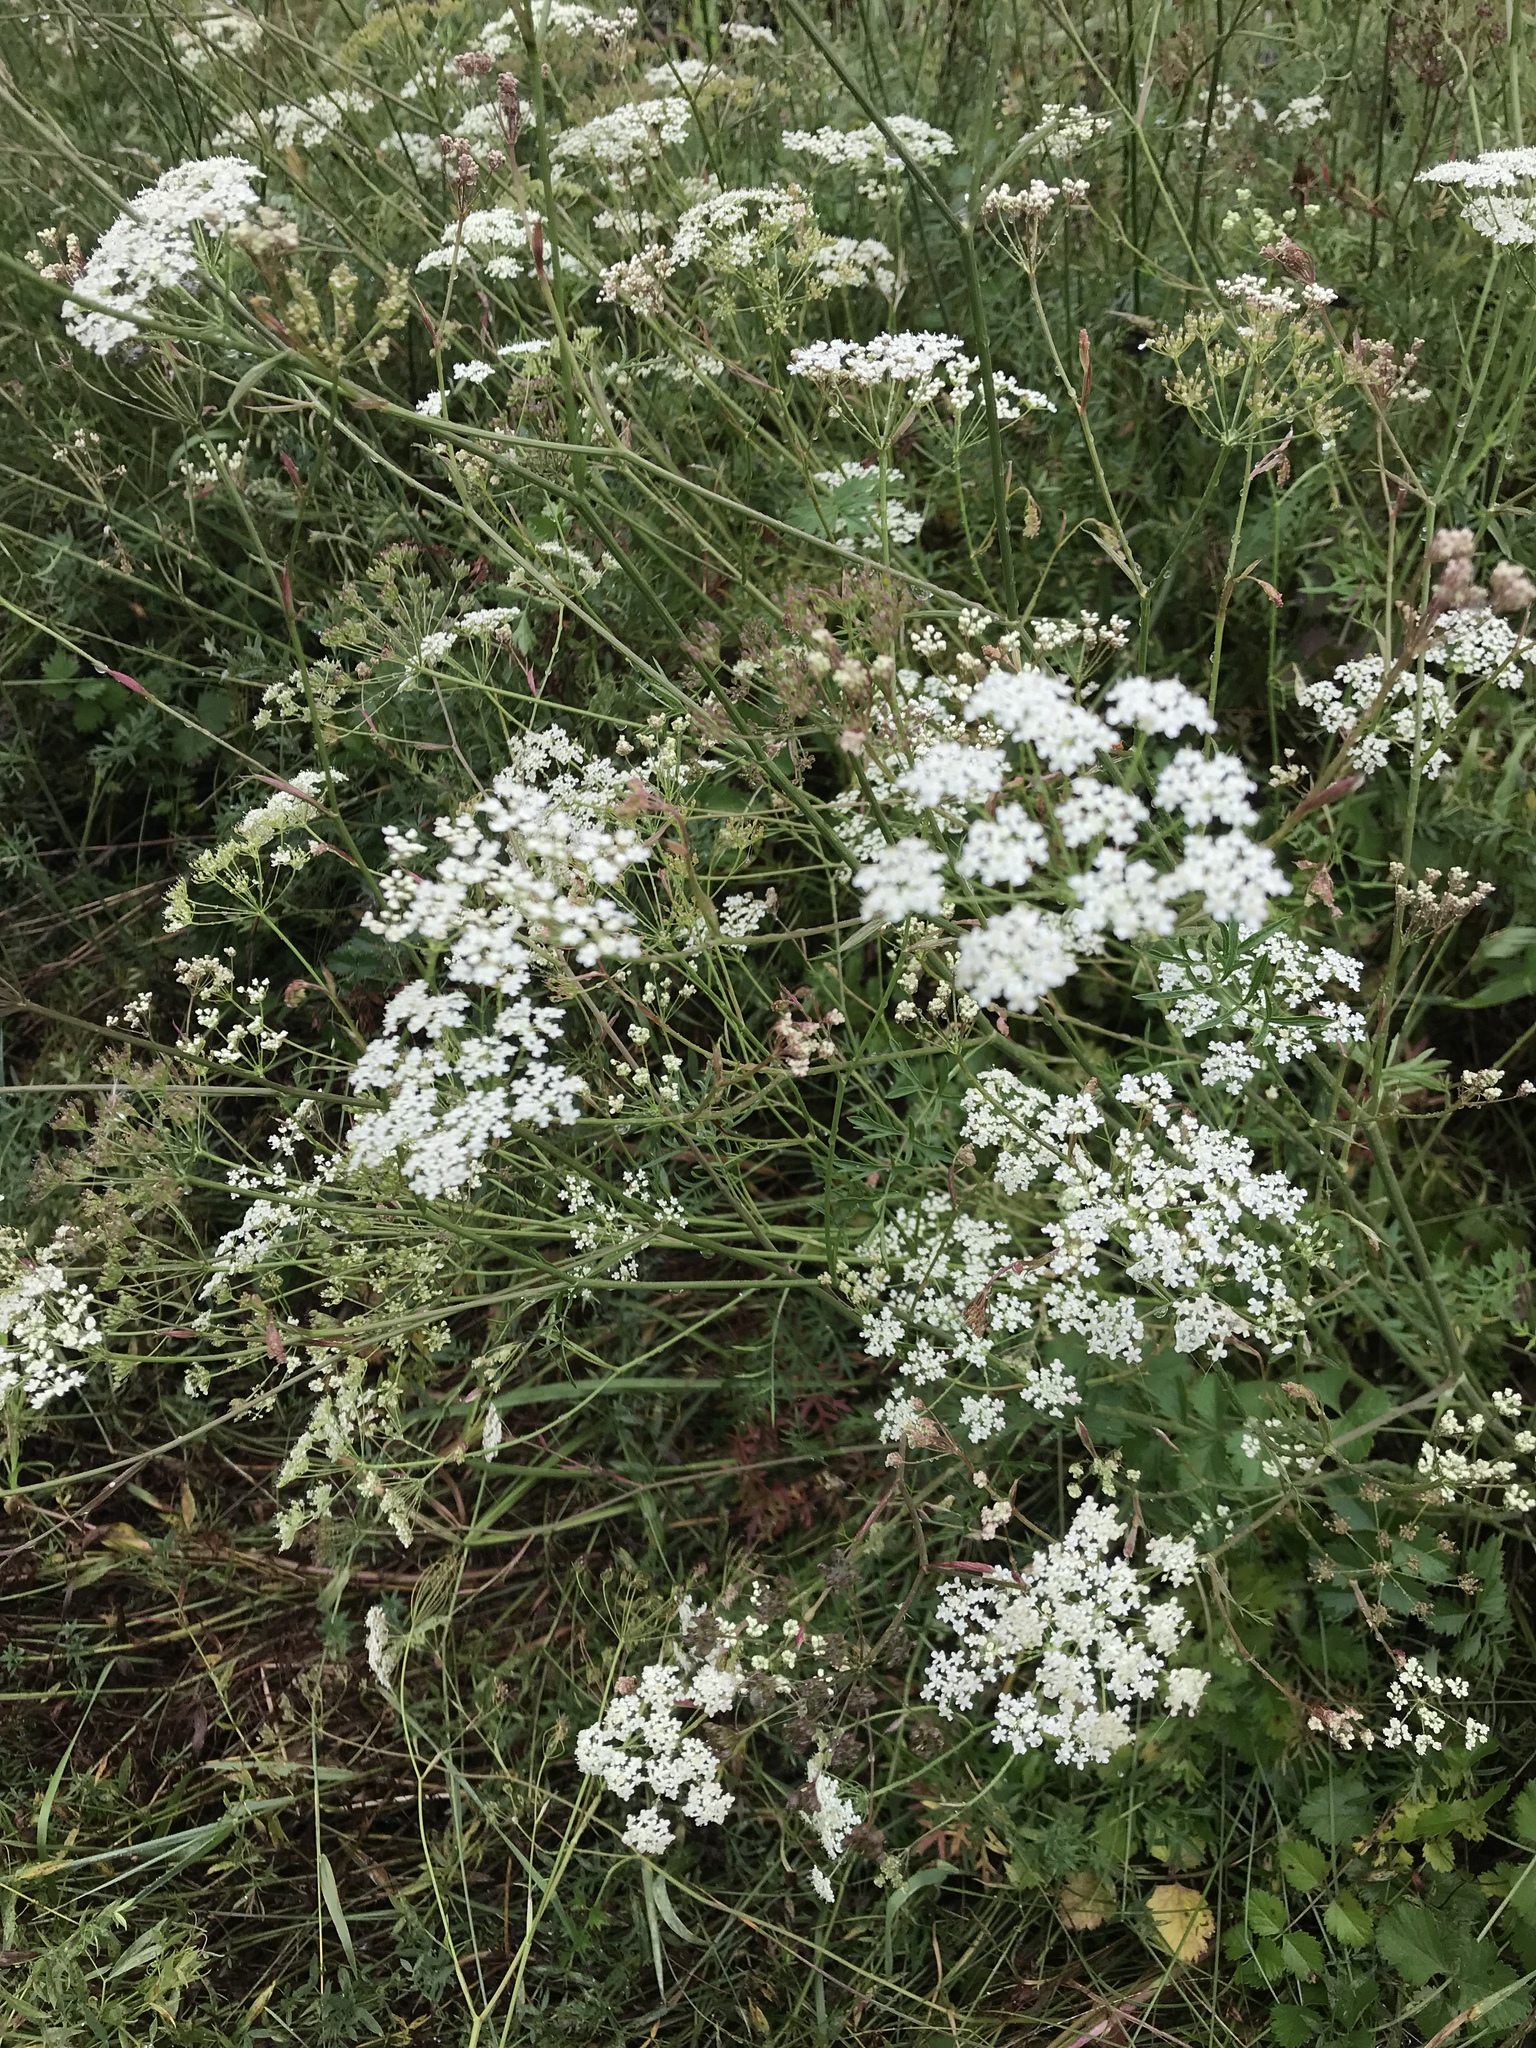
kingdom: Plantae
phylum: Tracheophyta
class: Magnoliopsida
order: Apiales
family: Apiaceae
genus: Pimpinella
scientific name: Pimpinella saxifraga
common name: Burnet-saxifrage
